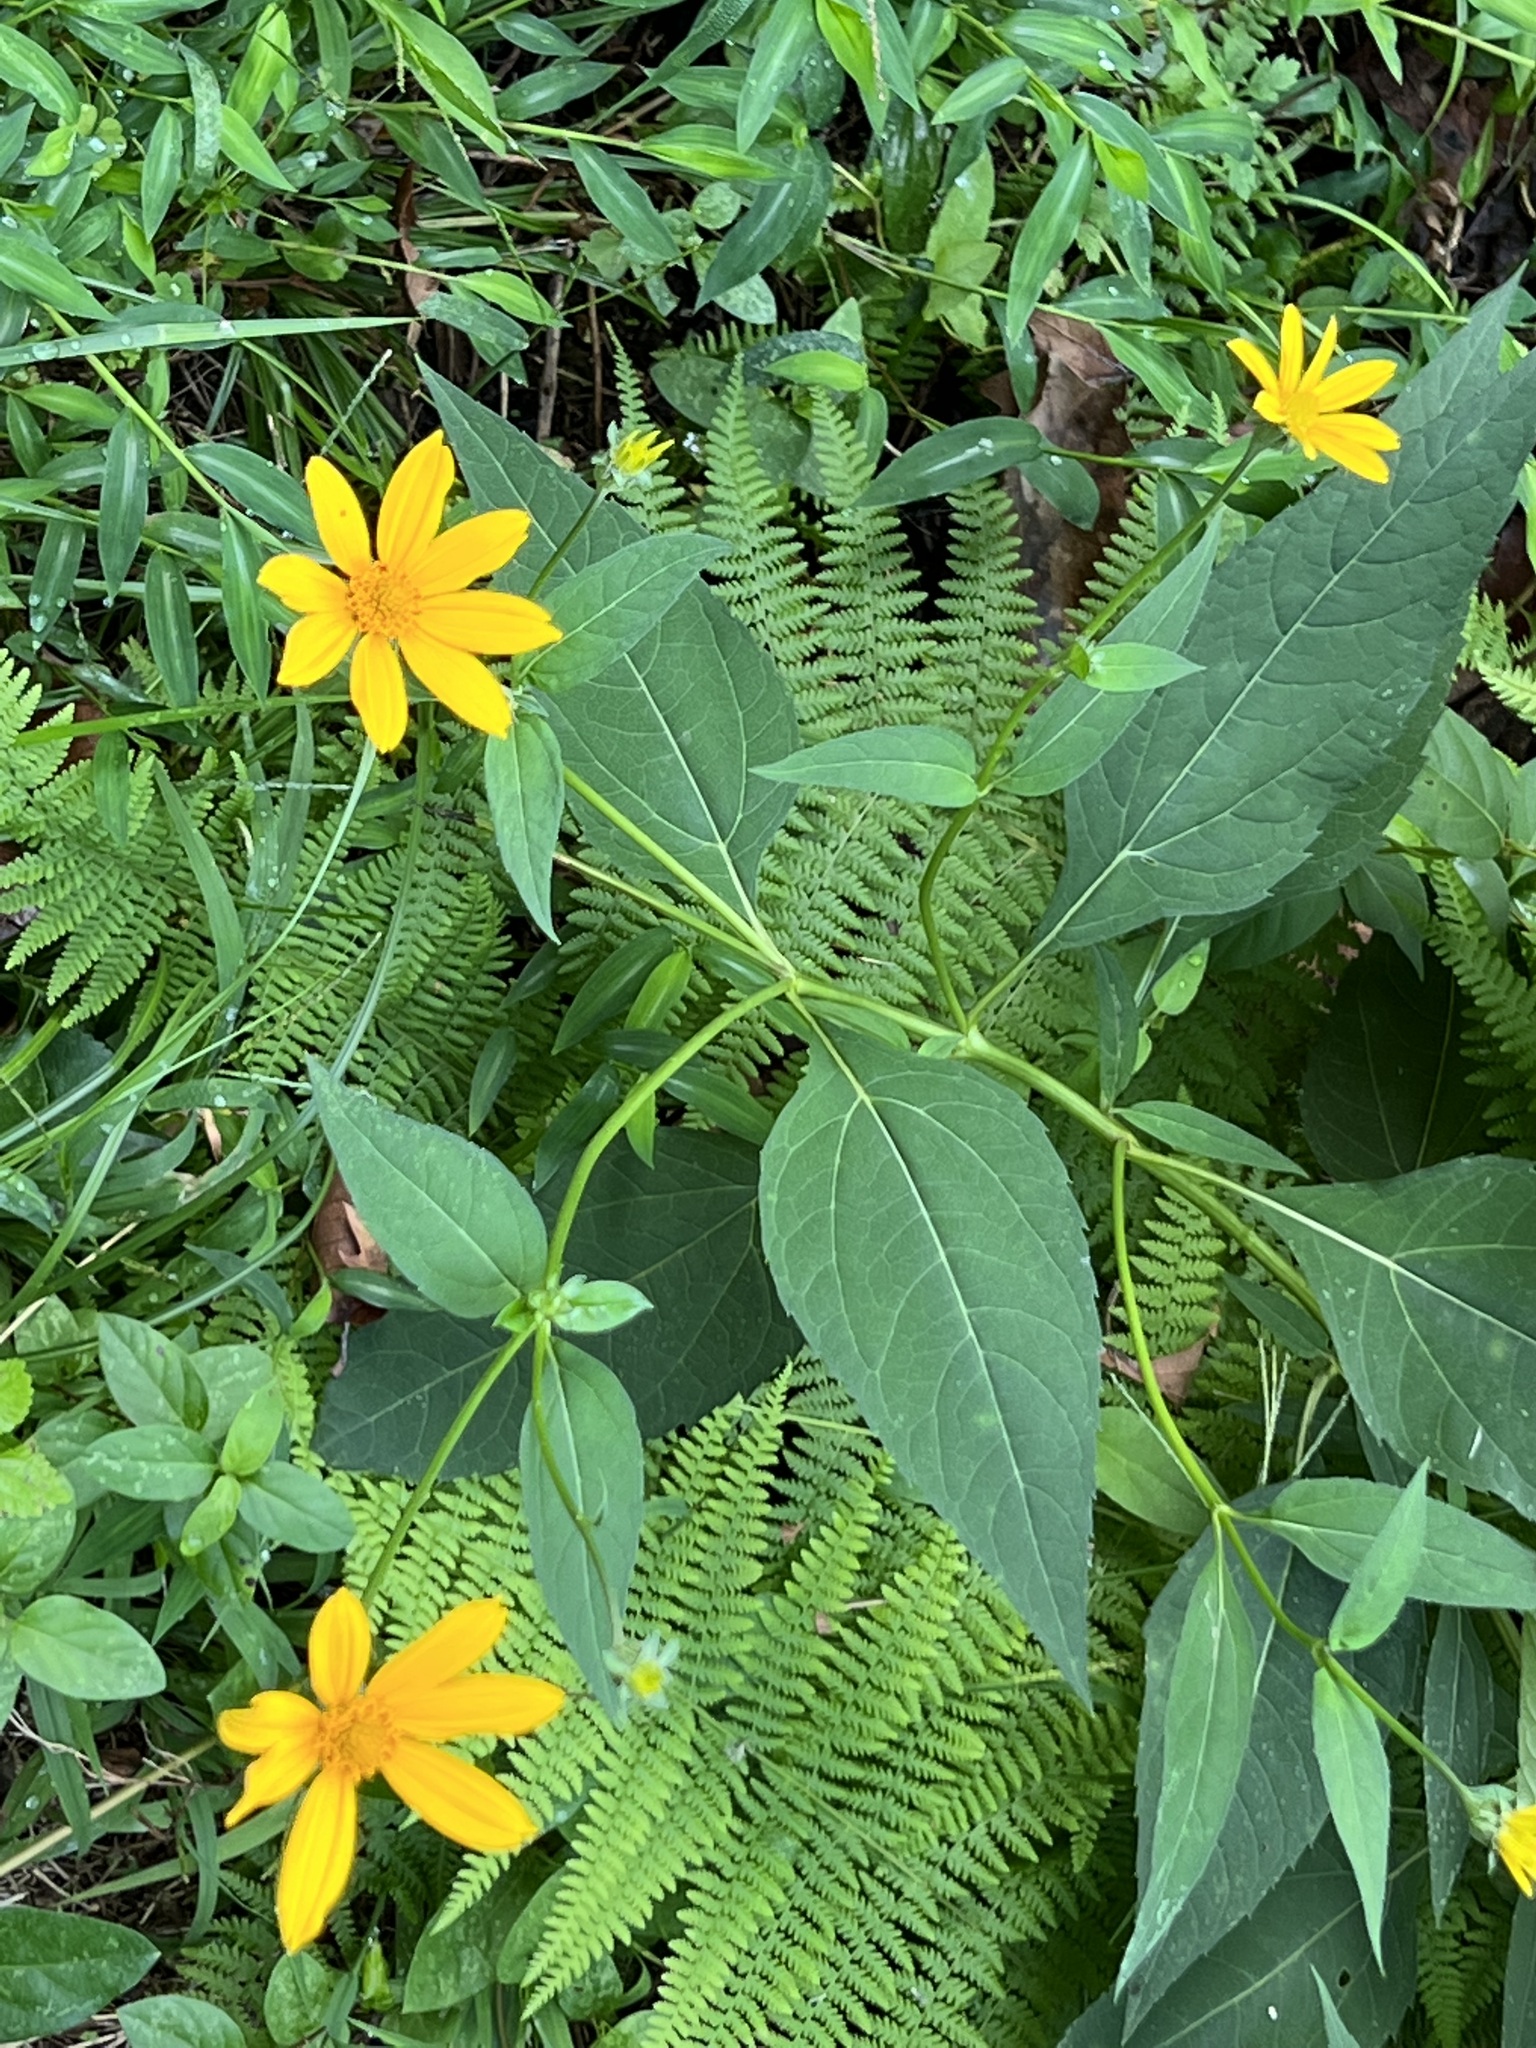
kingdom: Plantae
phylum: Tracheophyta
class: Magnoliopsida
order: Asterales
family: Asteraceae
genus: Helianthus
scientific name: Helianthus decapetalus
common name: Thin-leaved sunflower
